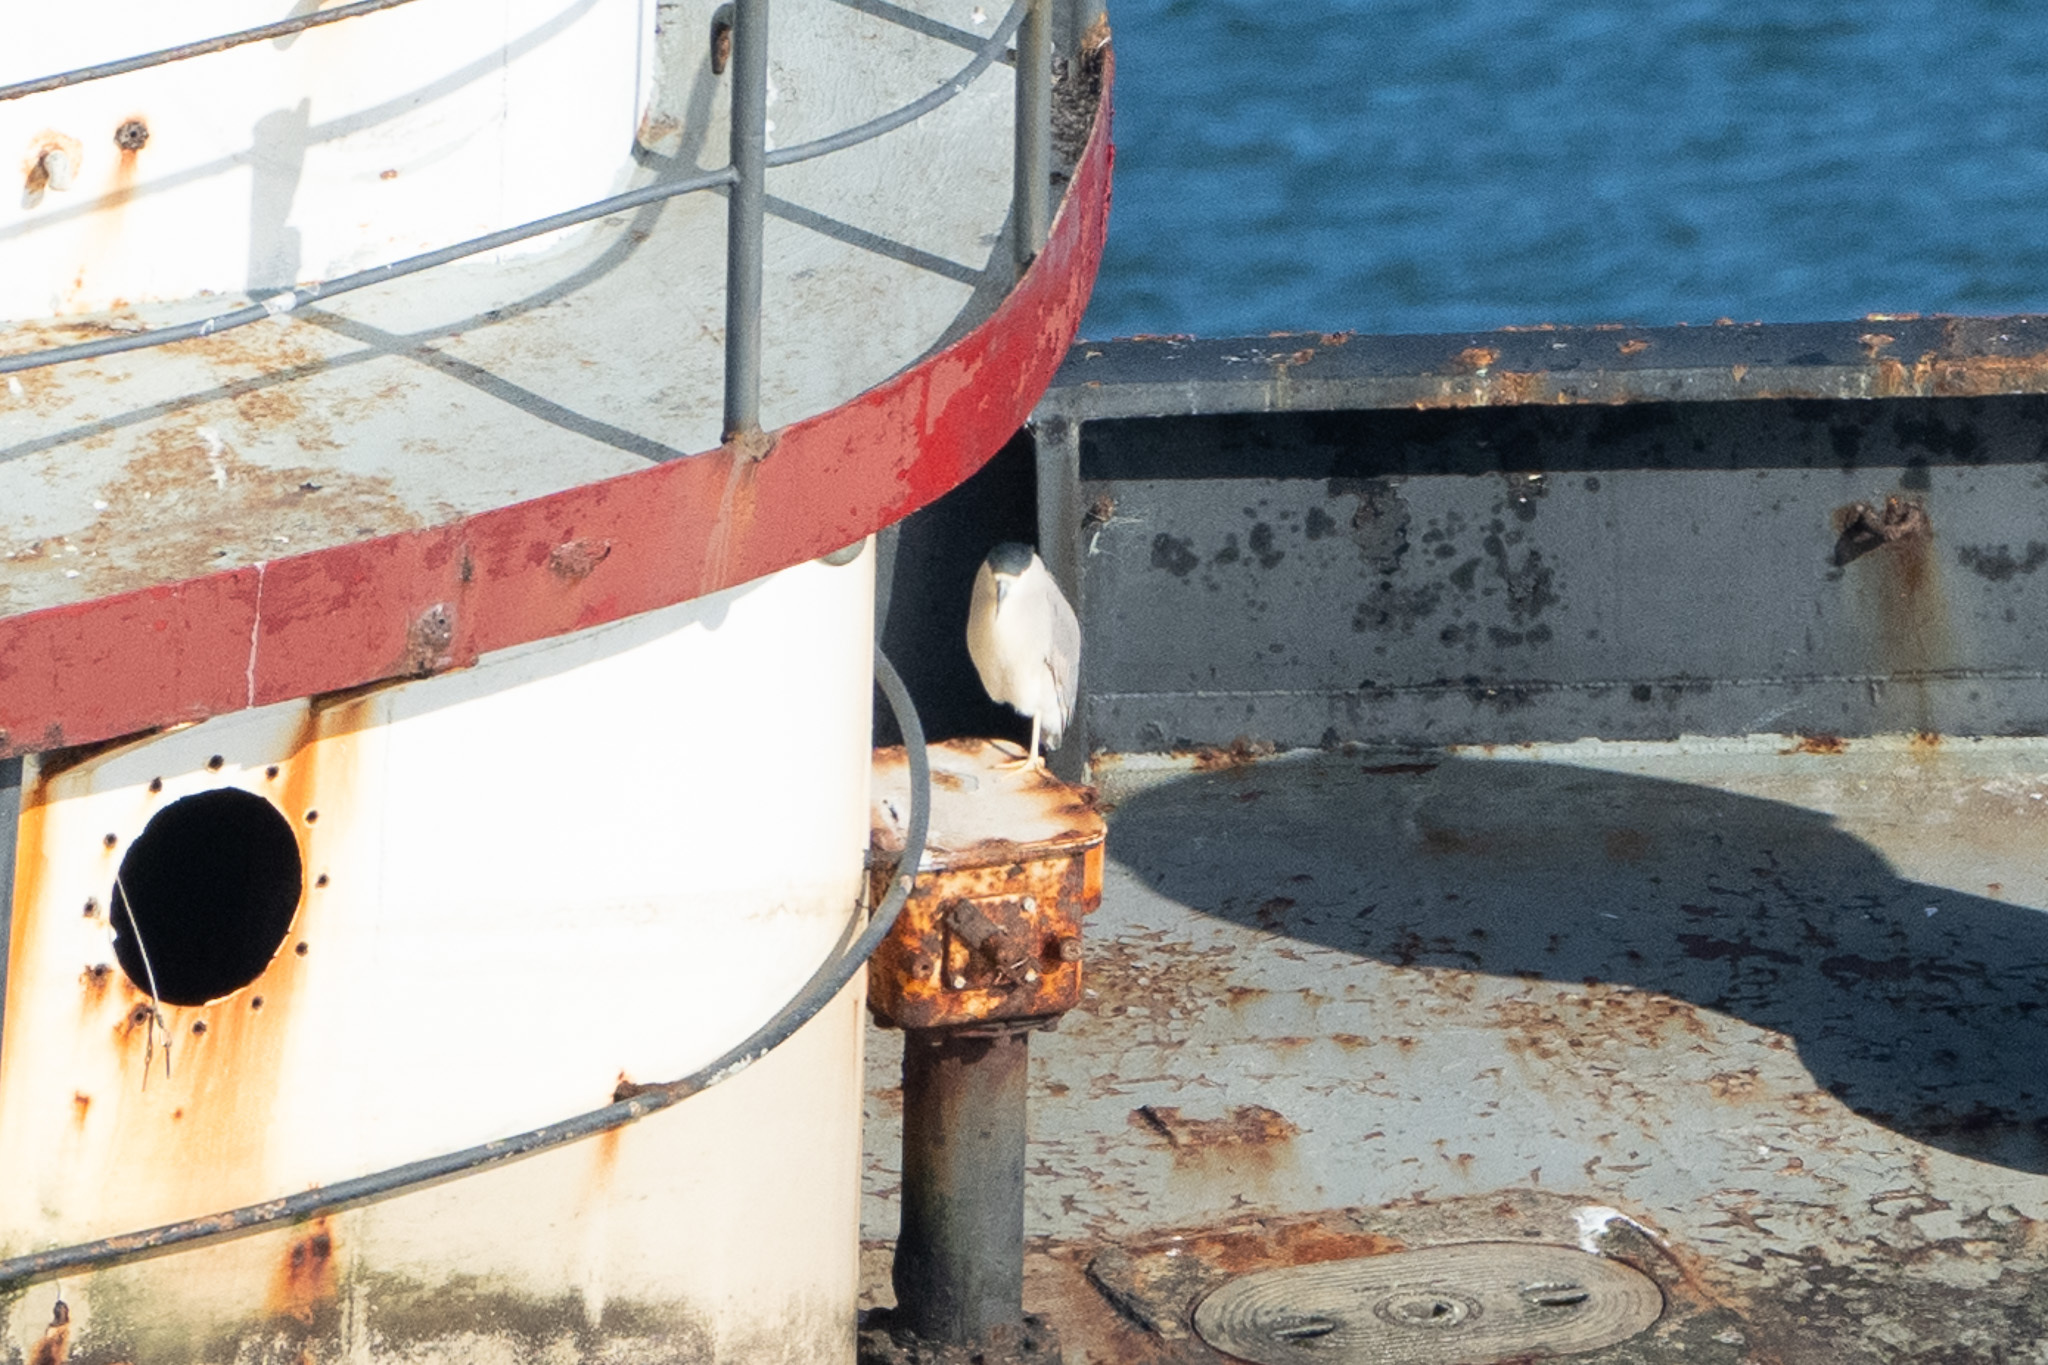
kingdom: Animalia
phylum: Chordata
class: Aves
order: Pelecaniformes
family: Ardeidae
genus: Nycticorax
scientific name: Nycticorax nycticorax
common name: Black-crowned night heron
